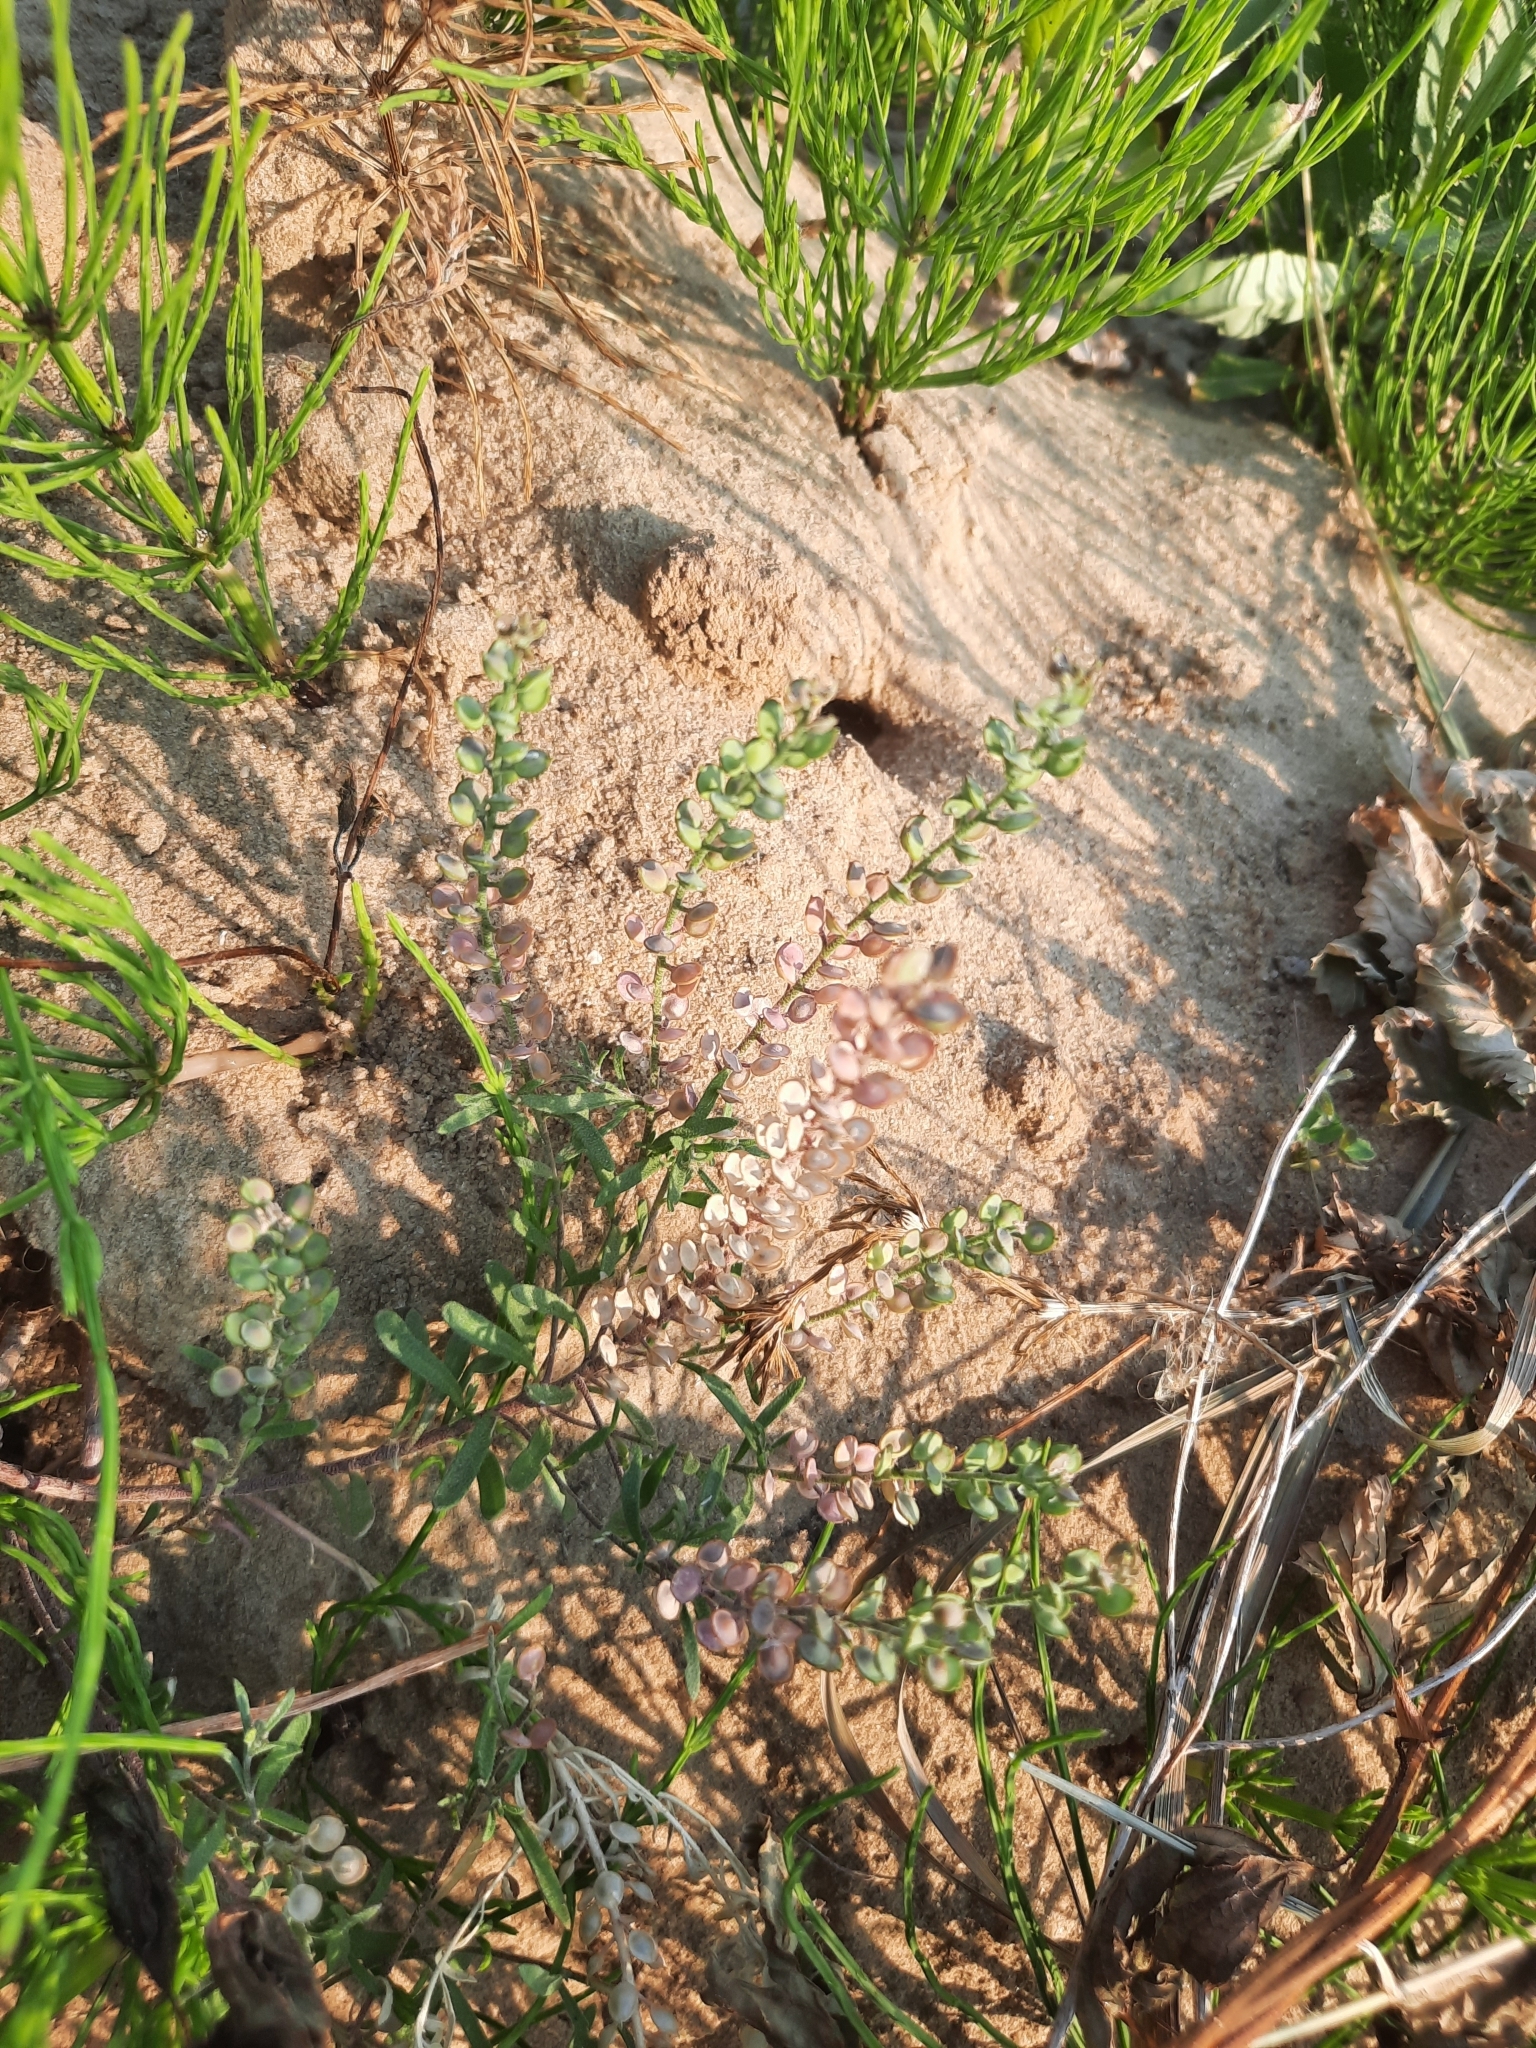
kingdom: Plantae
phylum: Tracheophyta
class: Magnoliopsida
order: Brassicales
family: Brassicaceae
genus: Alyssum
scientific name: Alyssum turkestanicum
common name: Desert alyssum
